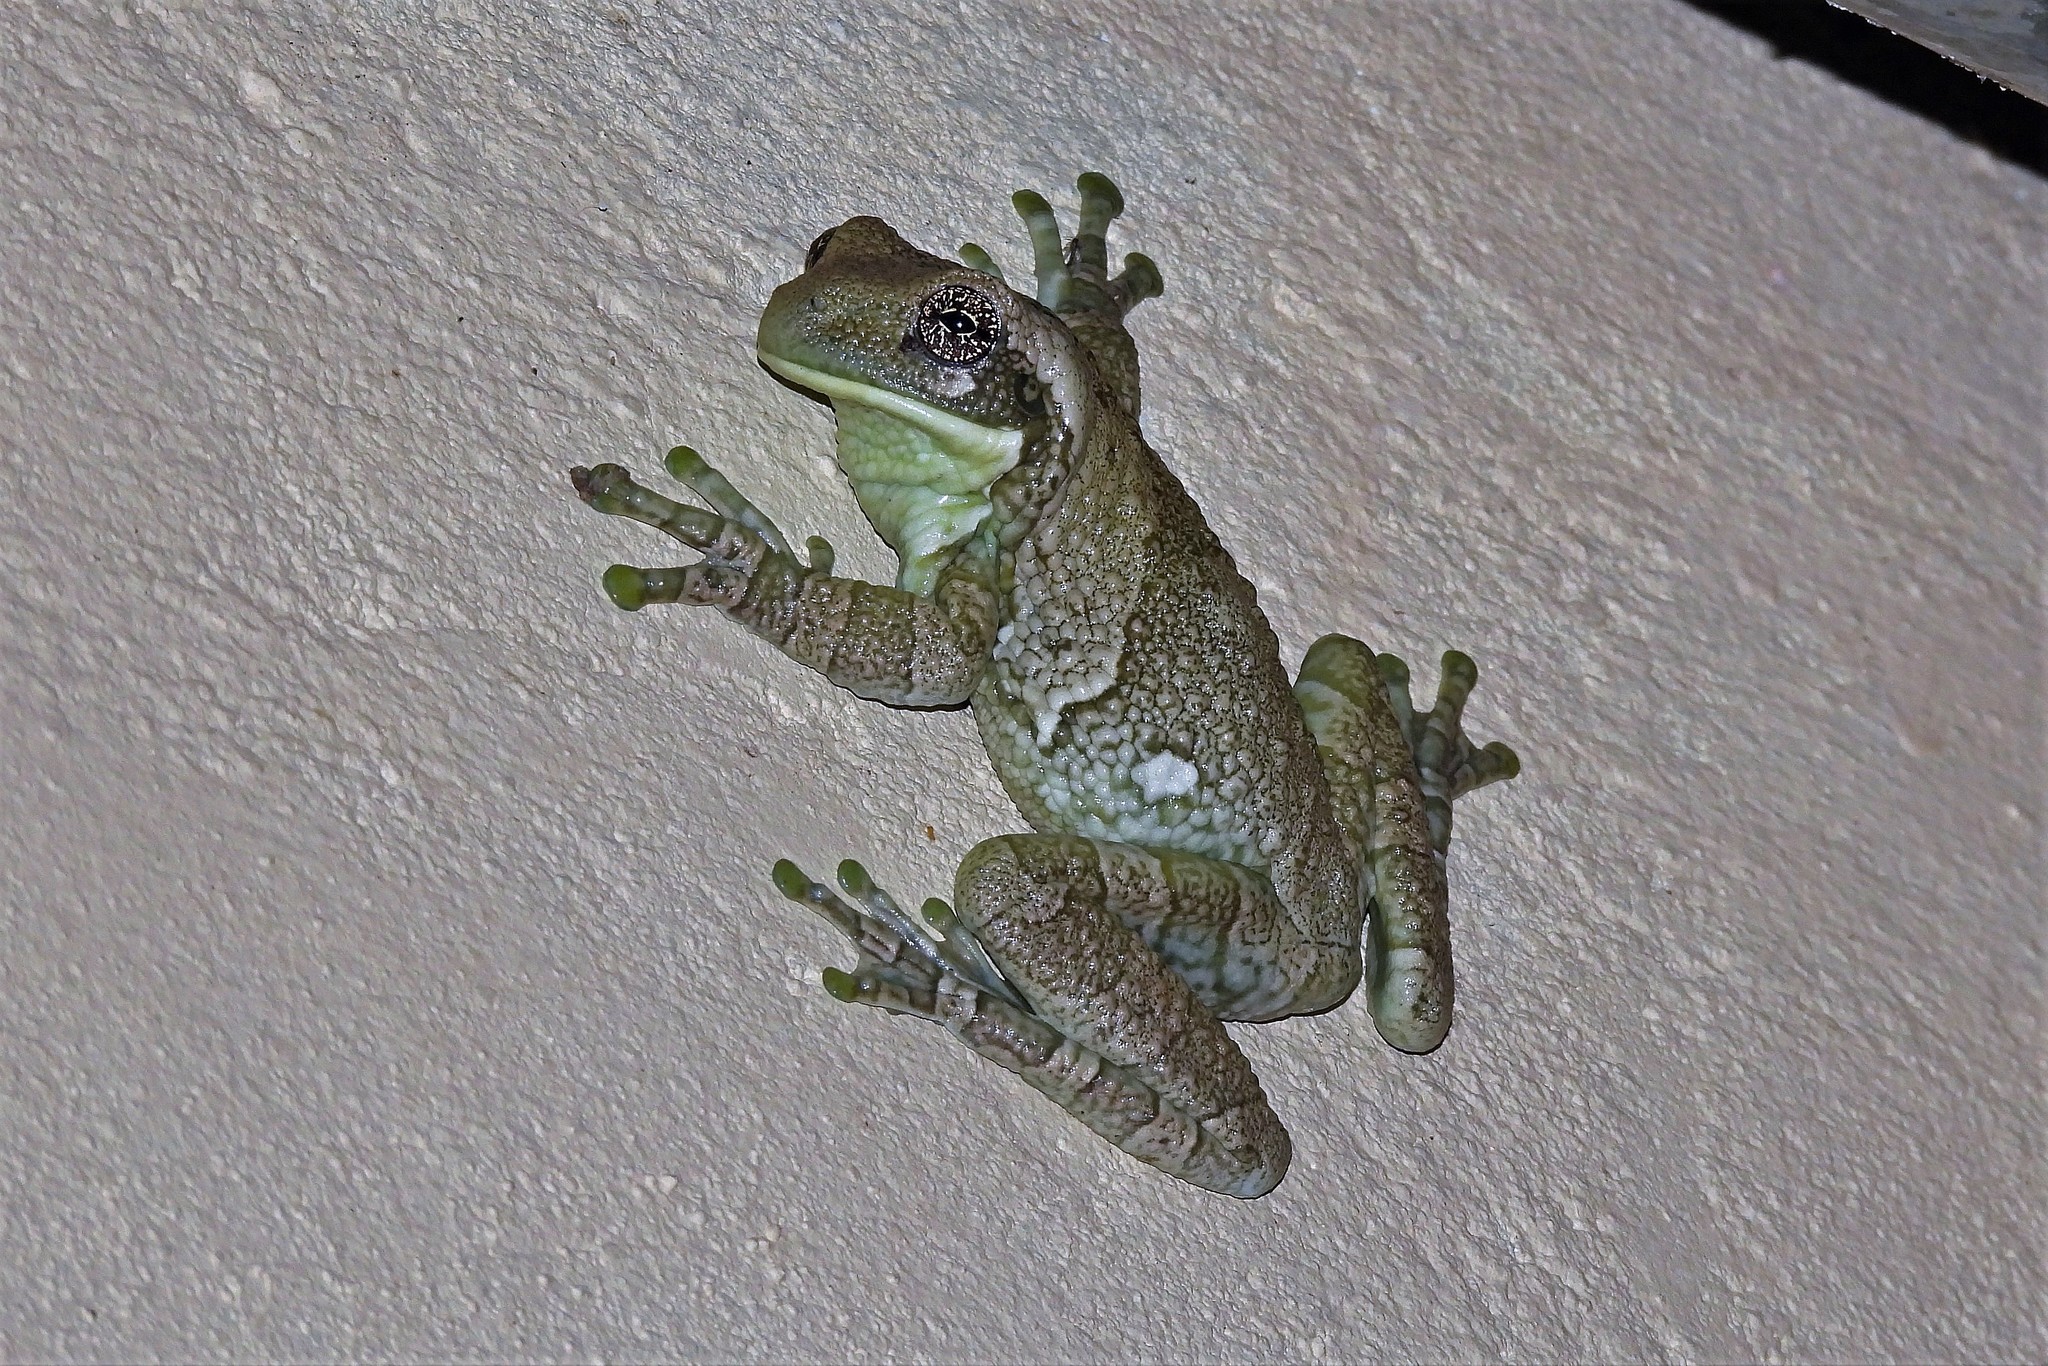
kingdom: Animalia
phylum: Chordata
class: Amphibia
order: Anura
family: Hylidae
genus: Trachycephalus
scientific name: Trachycephalus typhonius
